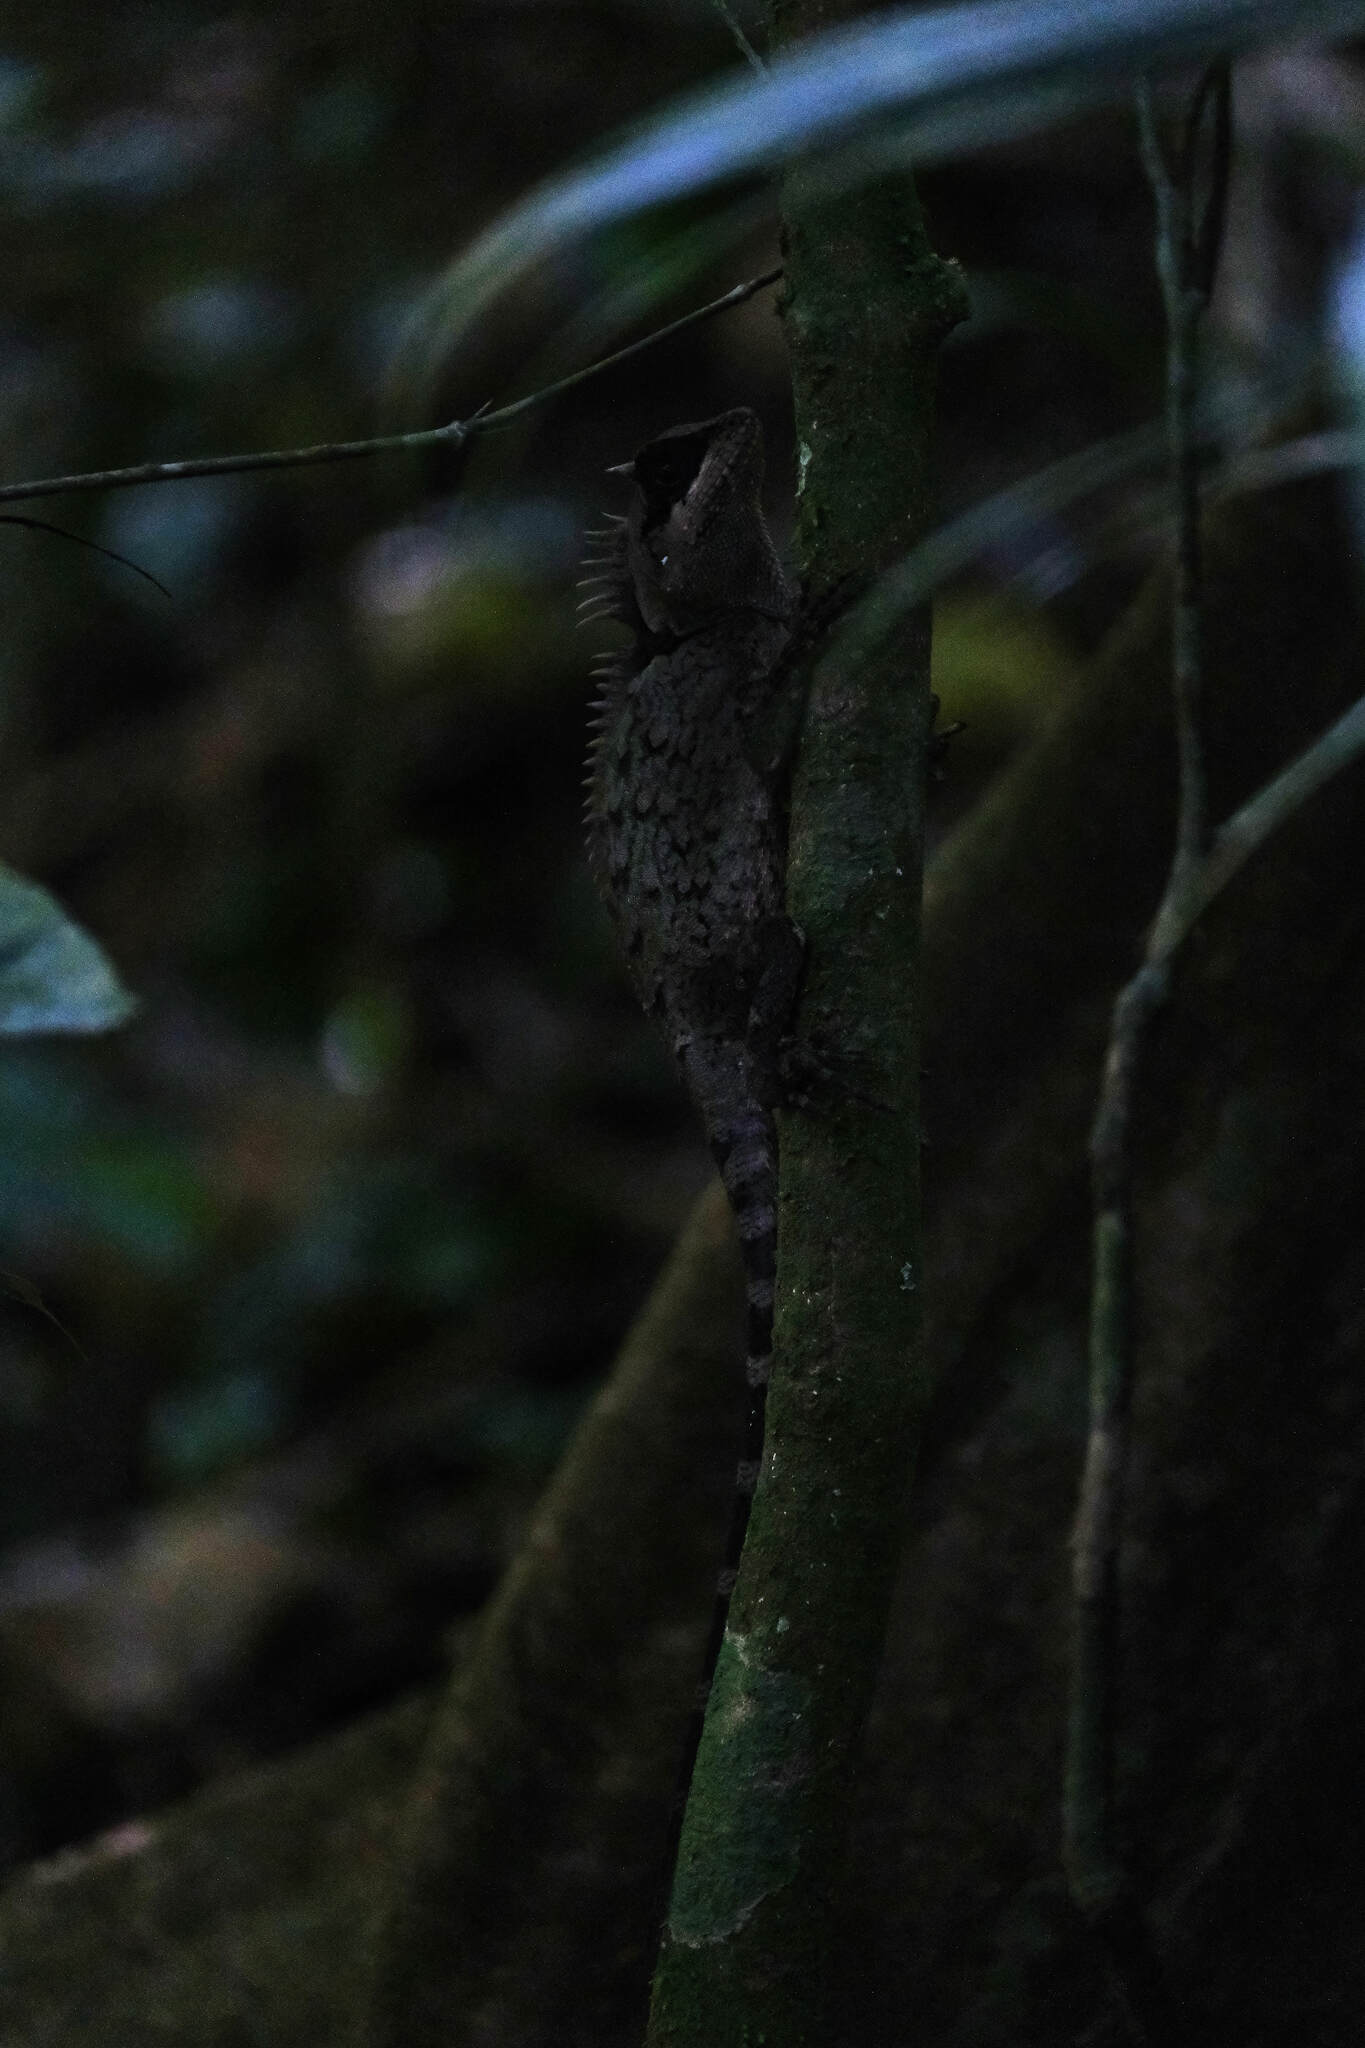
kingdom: Animalia
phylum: Chordata
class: Squamata
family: Agamidae
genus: Acanthosaura
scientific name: Acanthosaura cardamomensis
